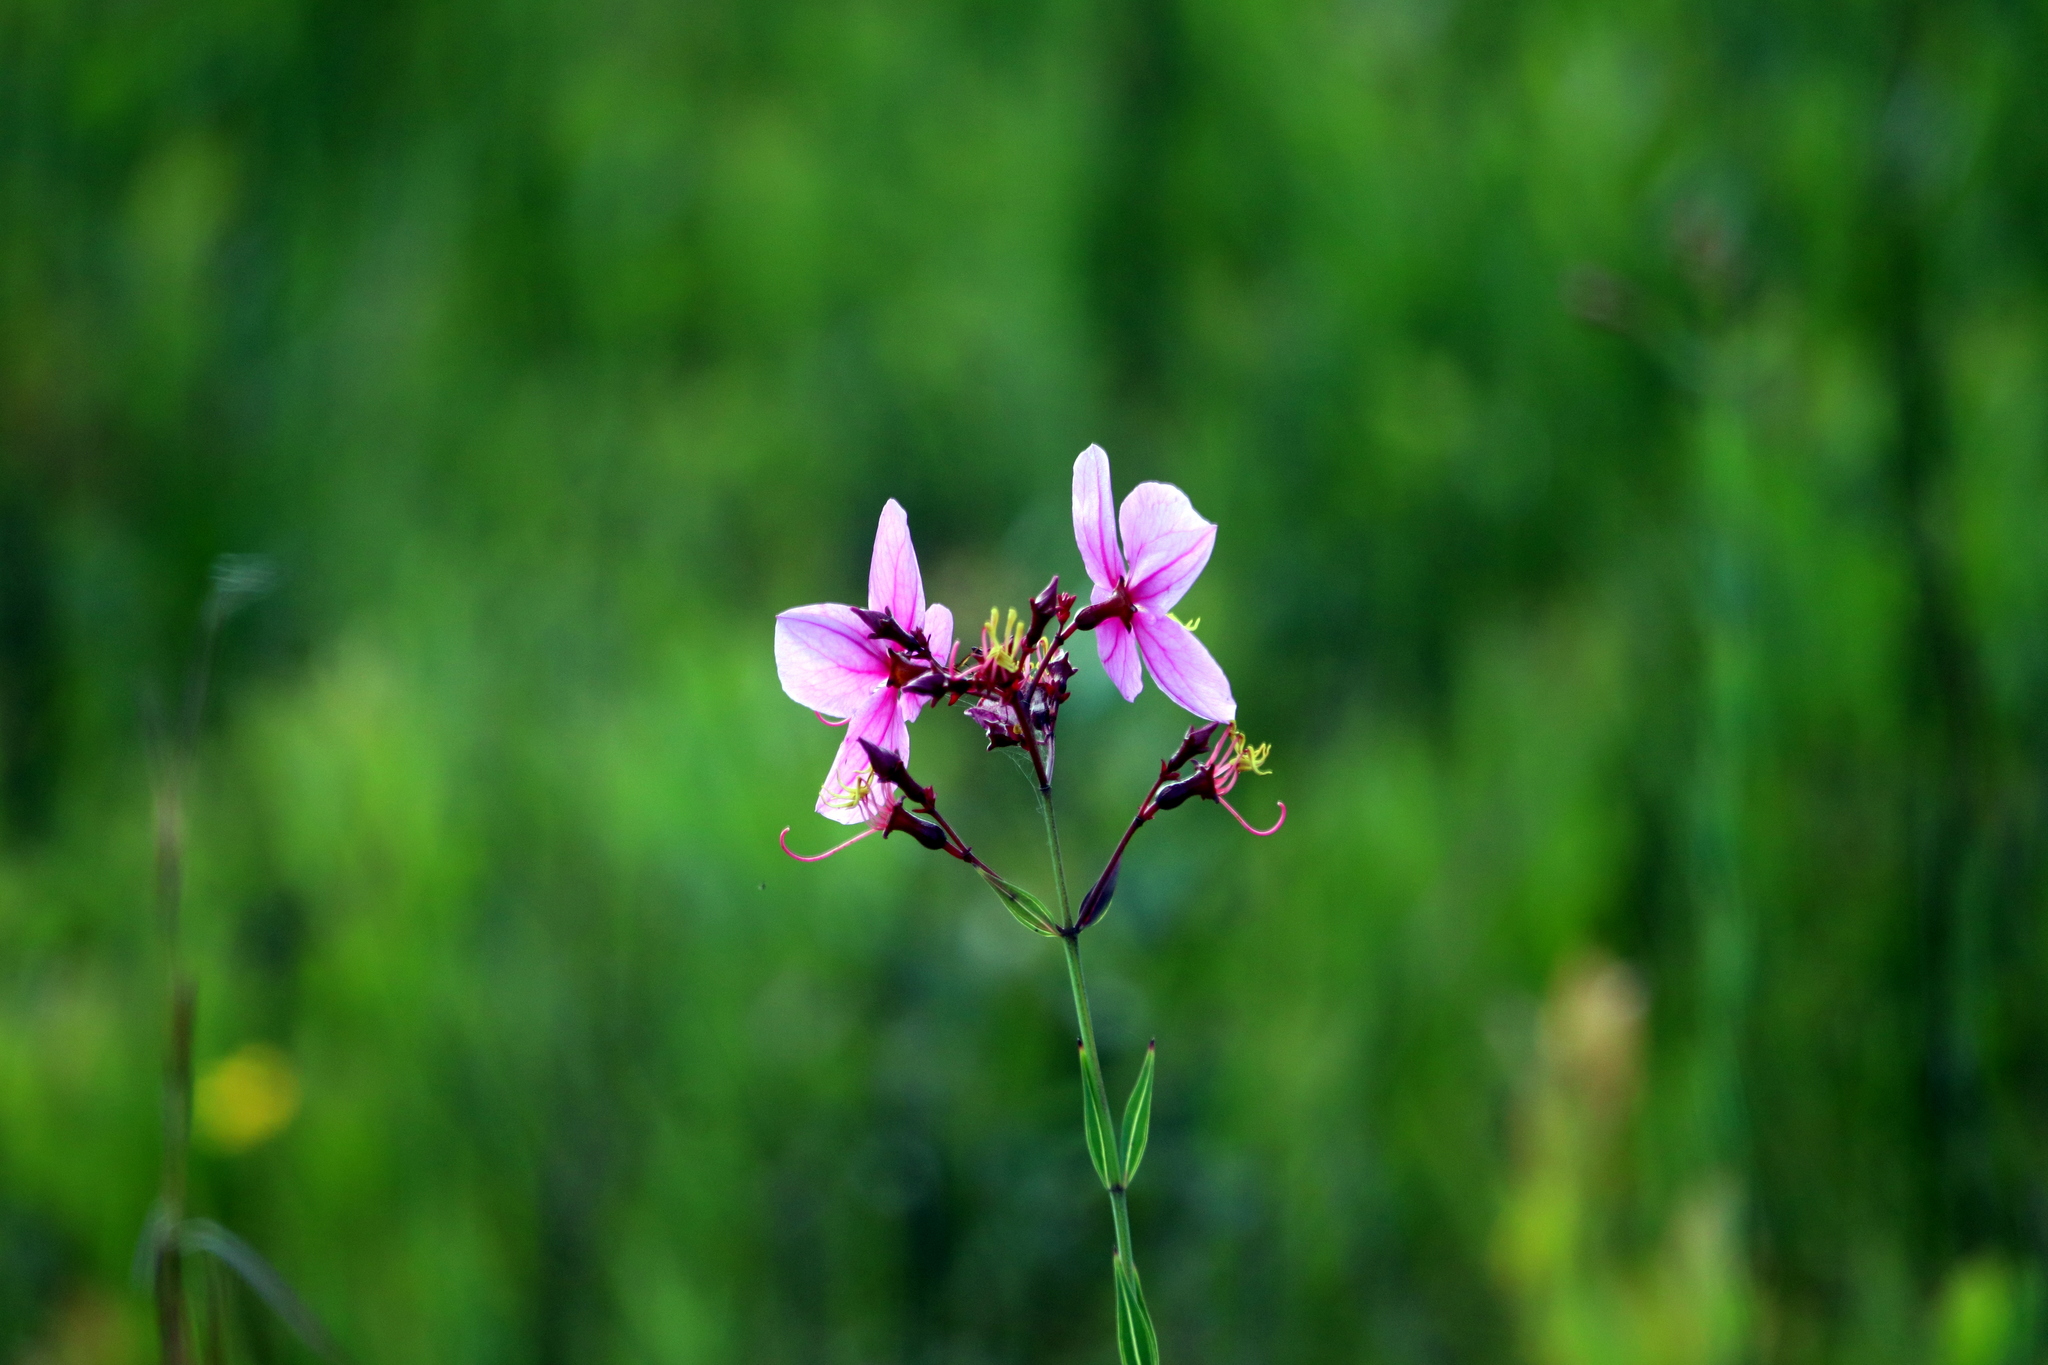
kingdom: Plantae
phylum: Tracheophyta
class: Magnoliopsida
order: Myrtales
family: Melastomataceae
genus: Rhexia
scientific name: Rhexia alifanus
